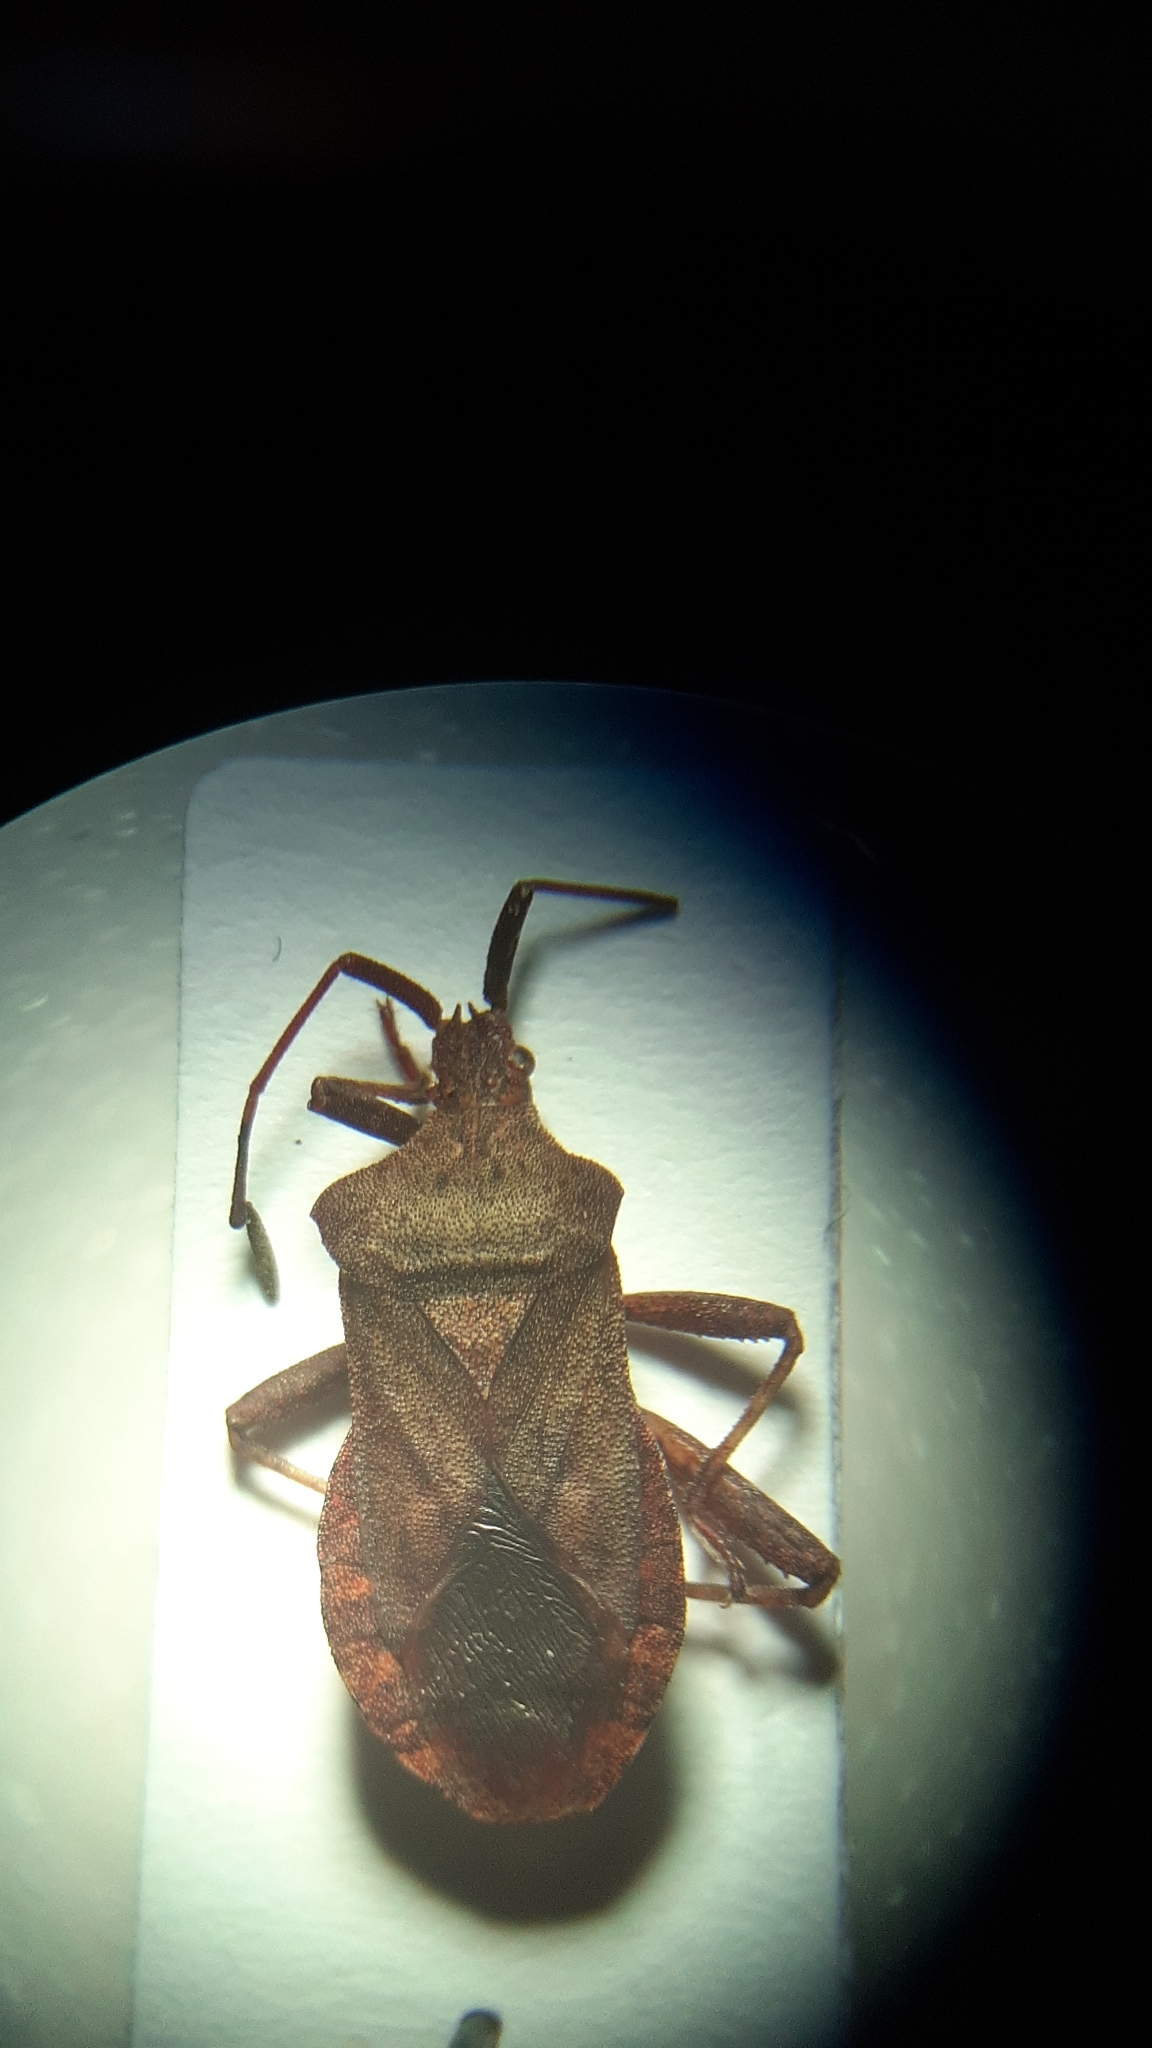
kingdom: Animalia
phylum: Arthropoda
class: Insecta
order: Hemiptera
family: Coreidae
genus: Coreus
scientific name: Coreus marginatus
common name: Dock bug
